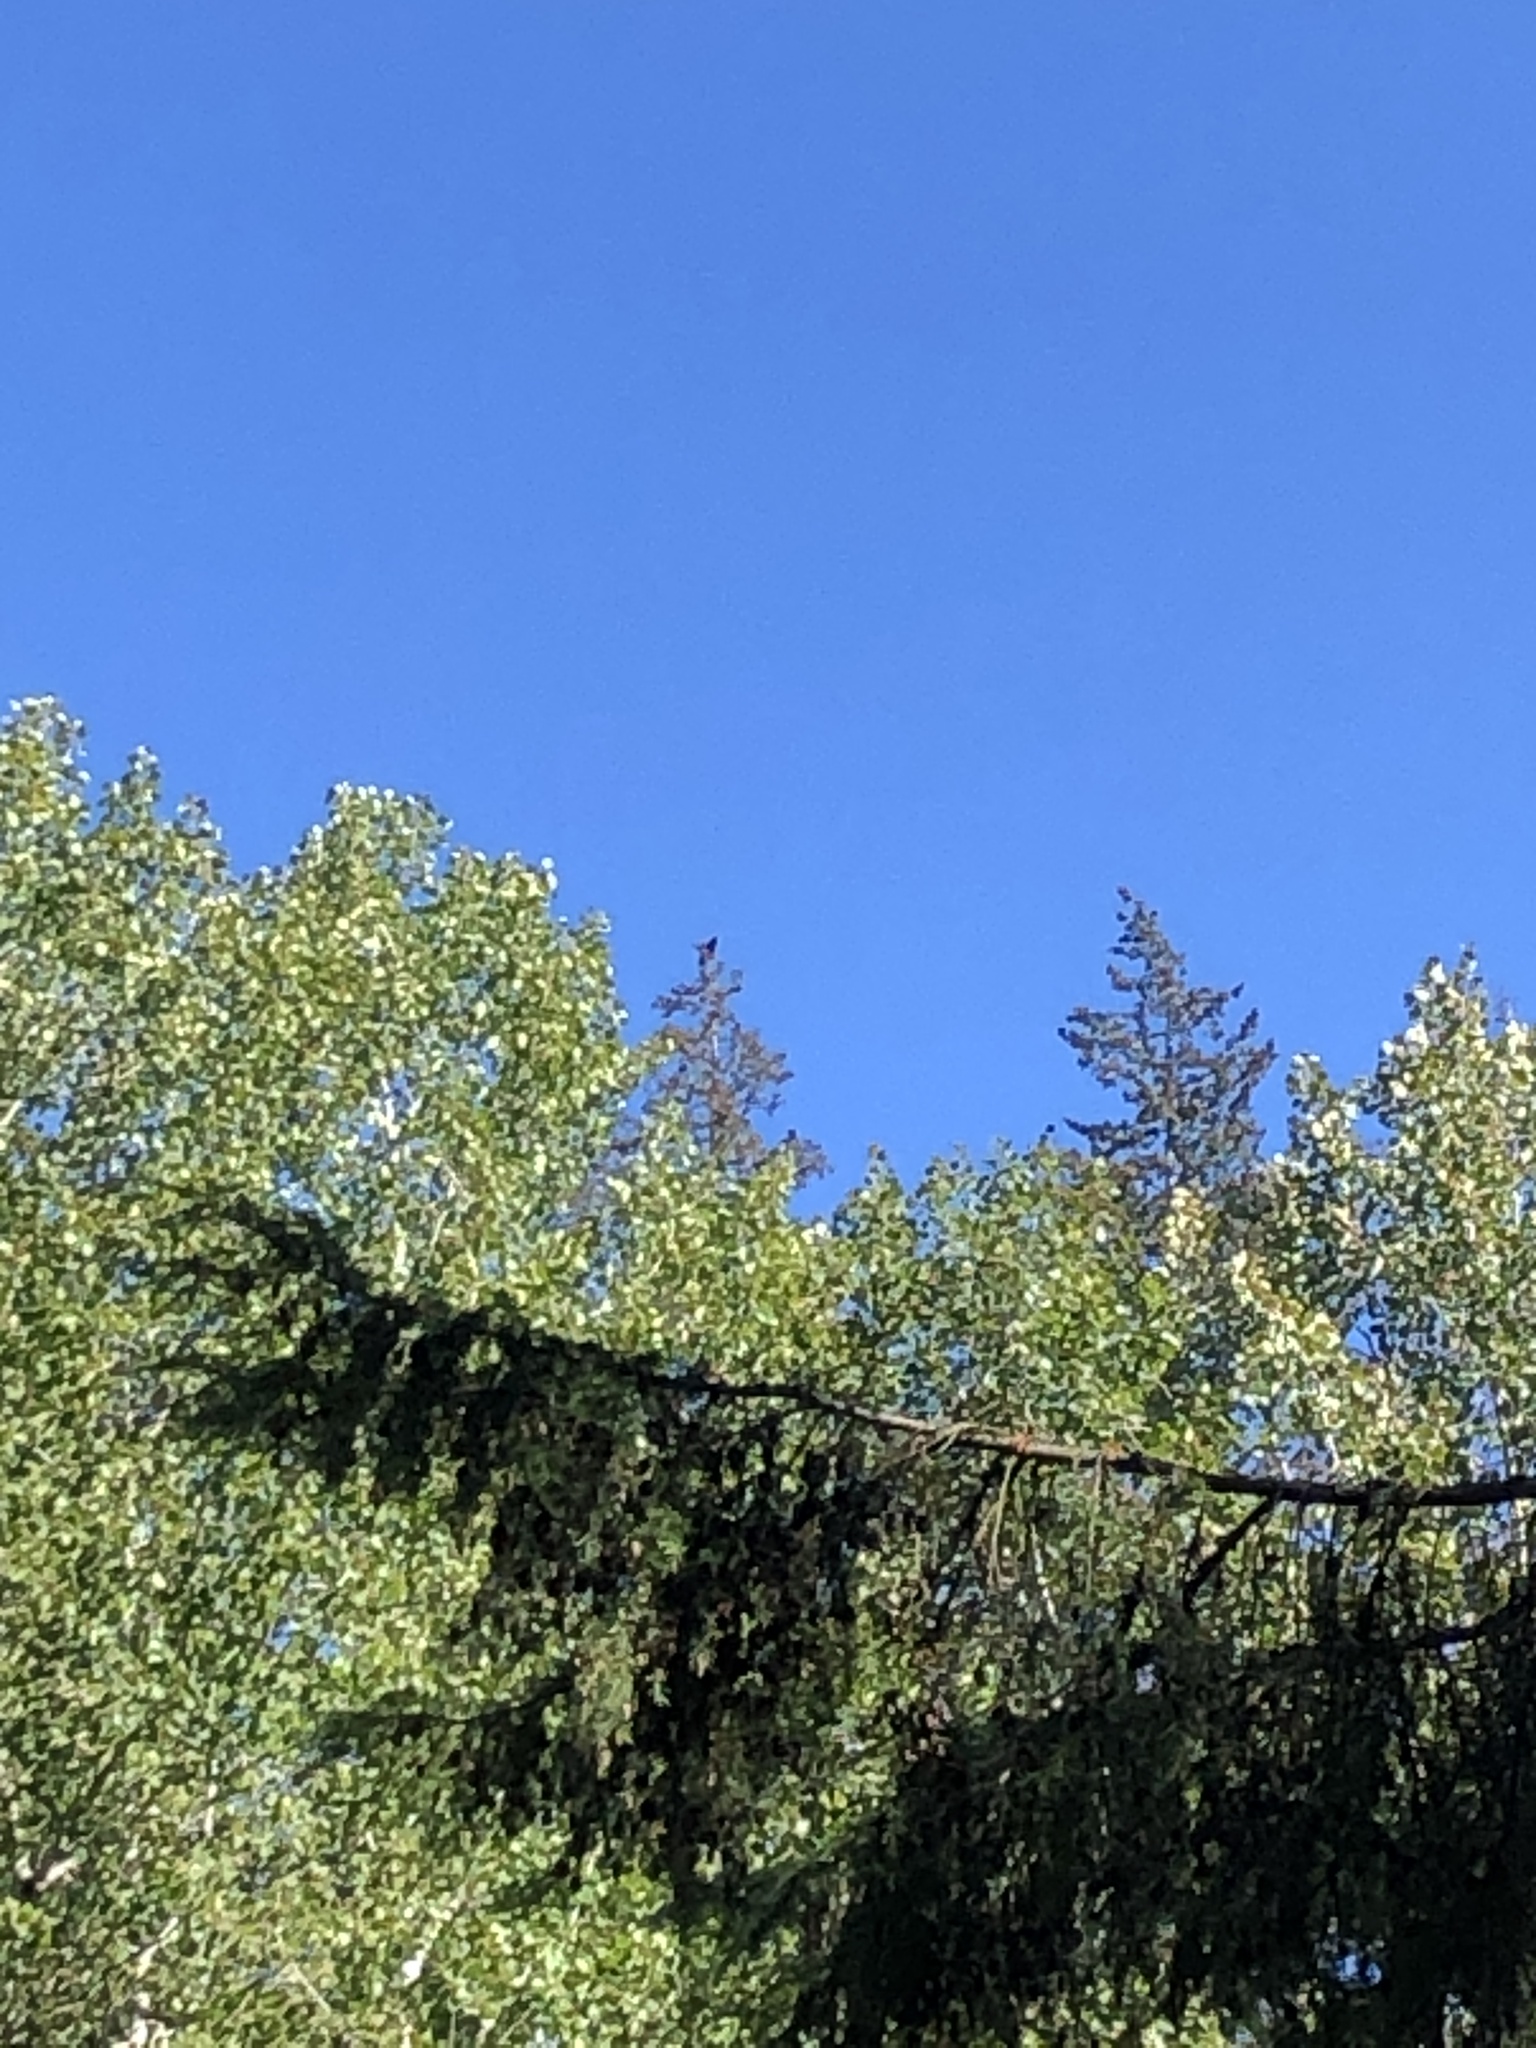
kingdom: Animalia
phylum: Chordata
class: Aves
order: Passeriformes
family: Corvidae
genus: Corvus
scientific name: Corvus corax
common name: Common raven
